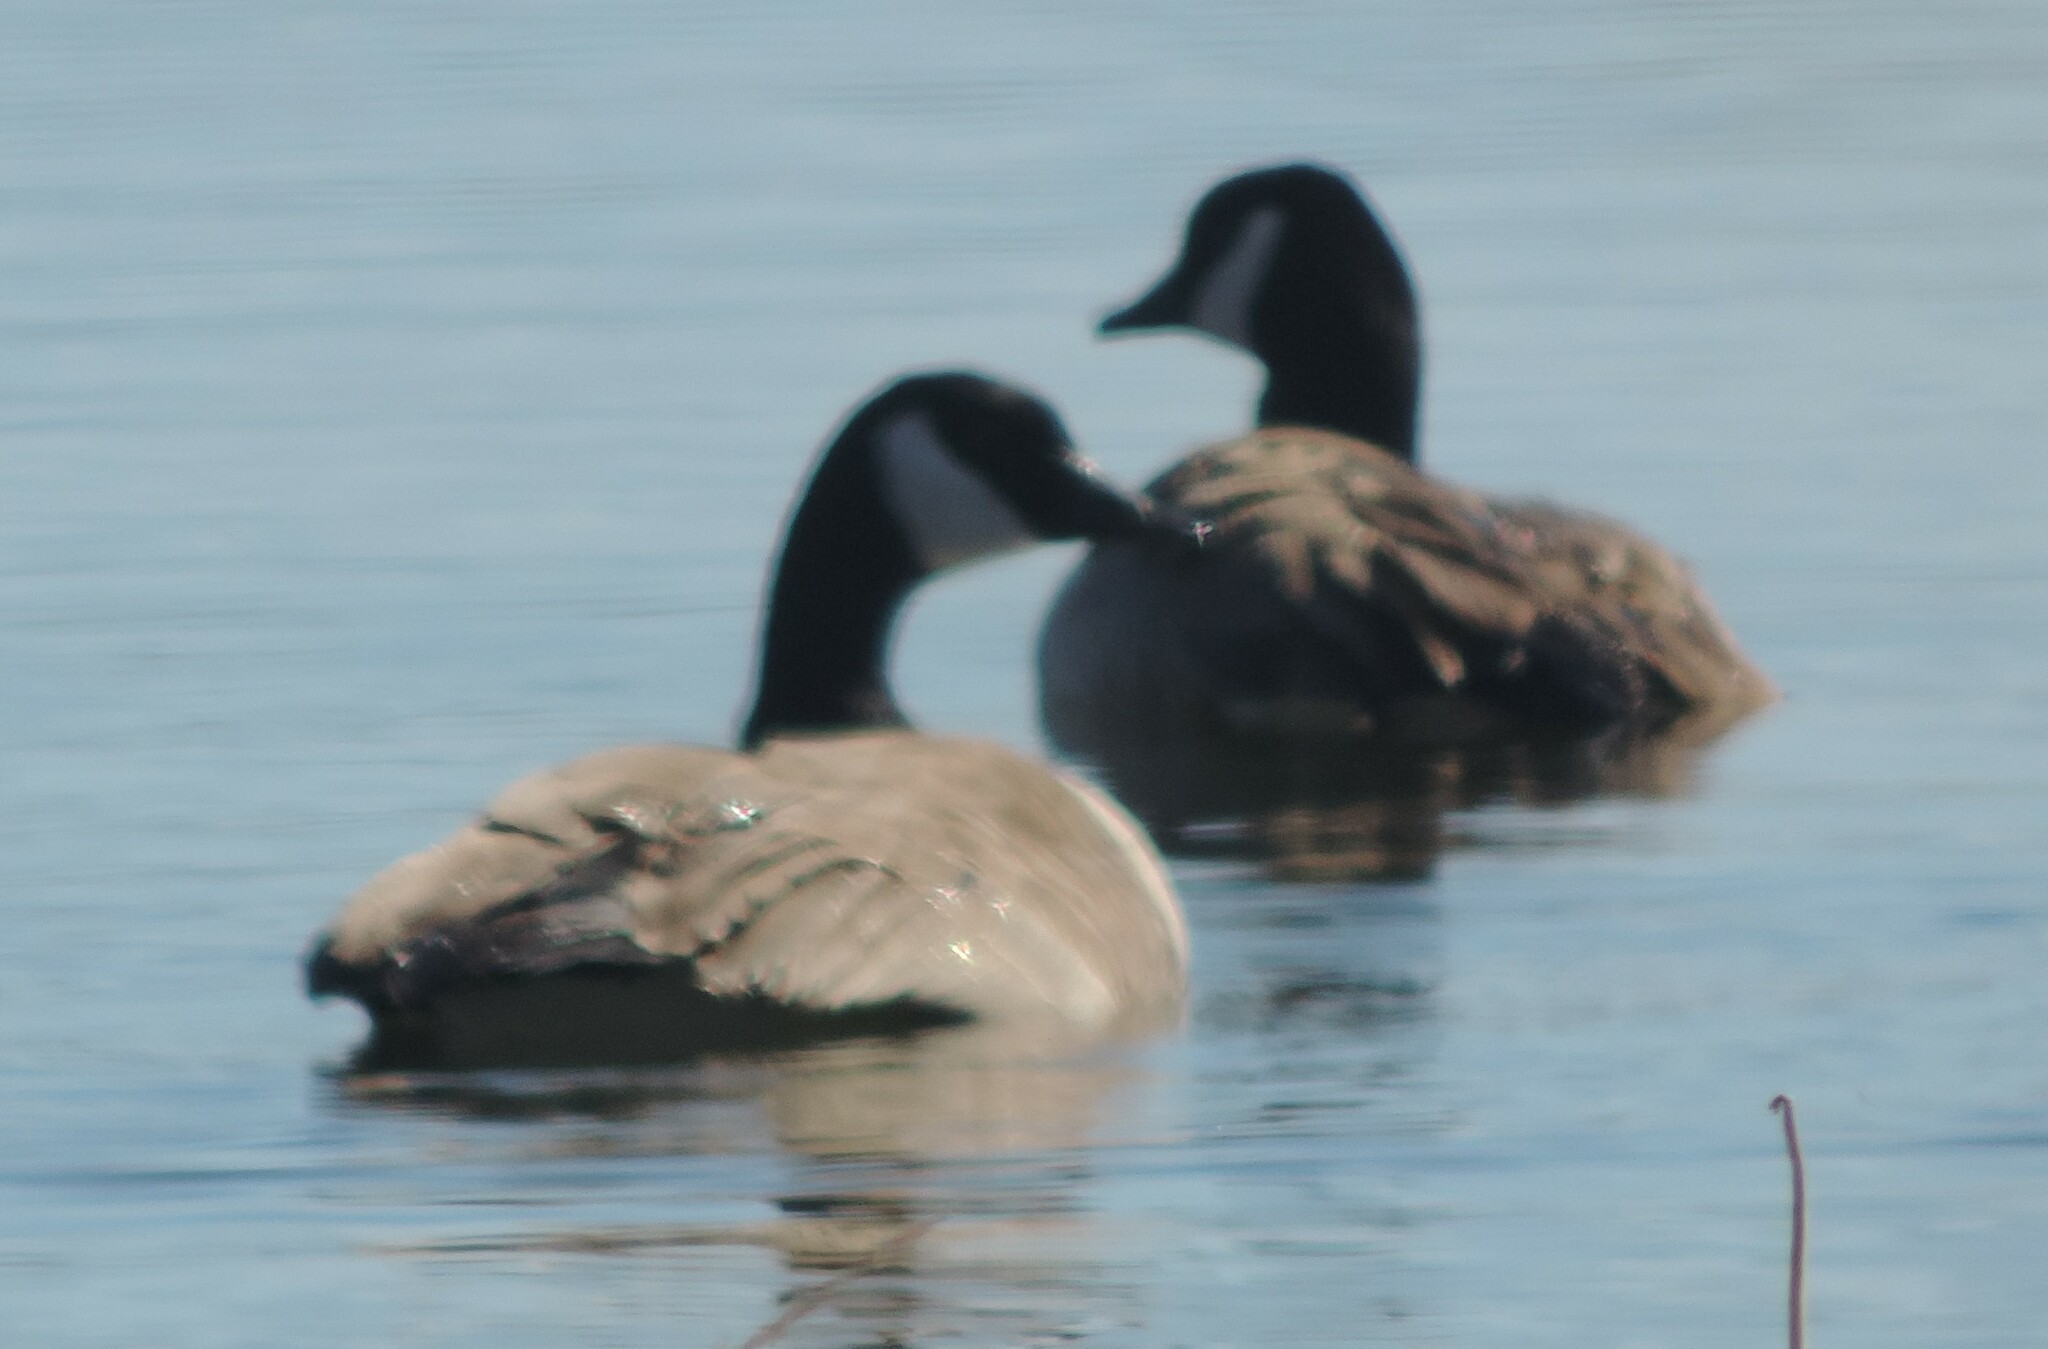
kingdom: Animalia
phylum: Chordata
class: Aves
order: Anseriformes
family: Anatidae
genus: Branta
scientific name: Branta canadensis
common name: Canada goose
